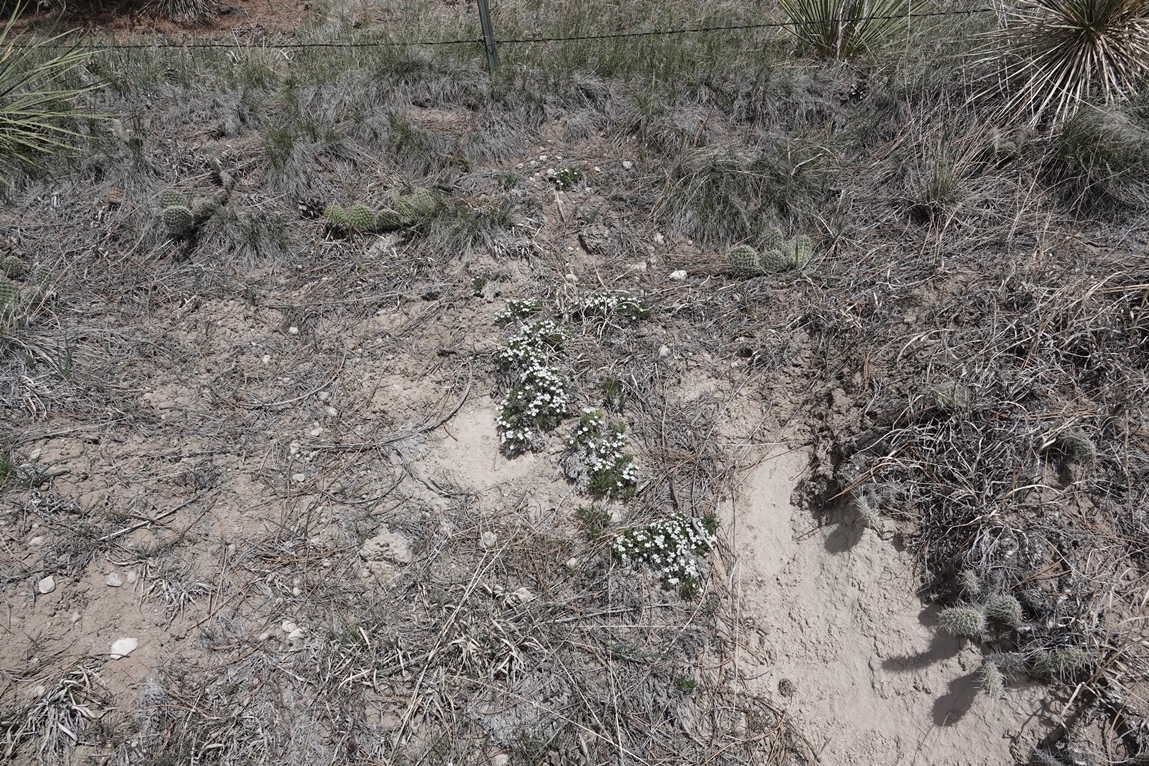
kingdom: Plantae
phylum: Tracheophyta
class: Magnoliopsida
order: Ericales
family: Polemoniaceae
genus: Phlox
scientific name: Phlox hoodii
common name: Moss phlox
